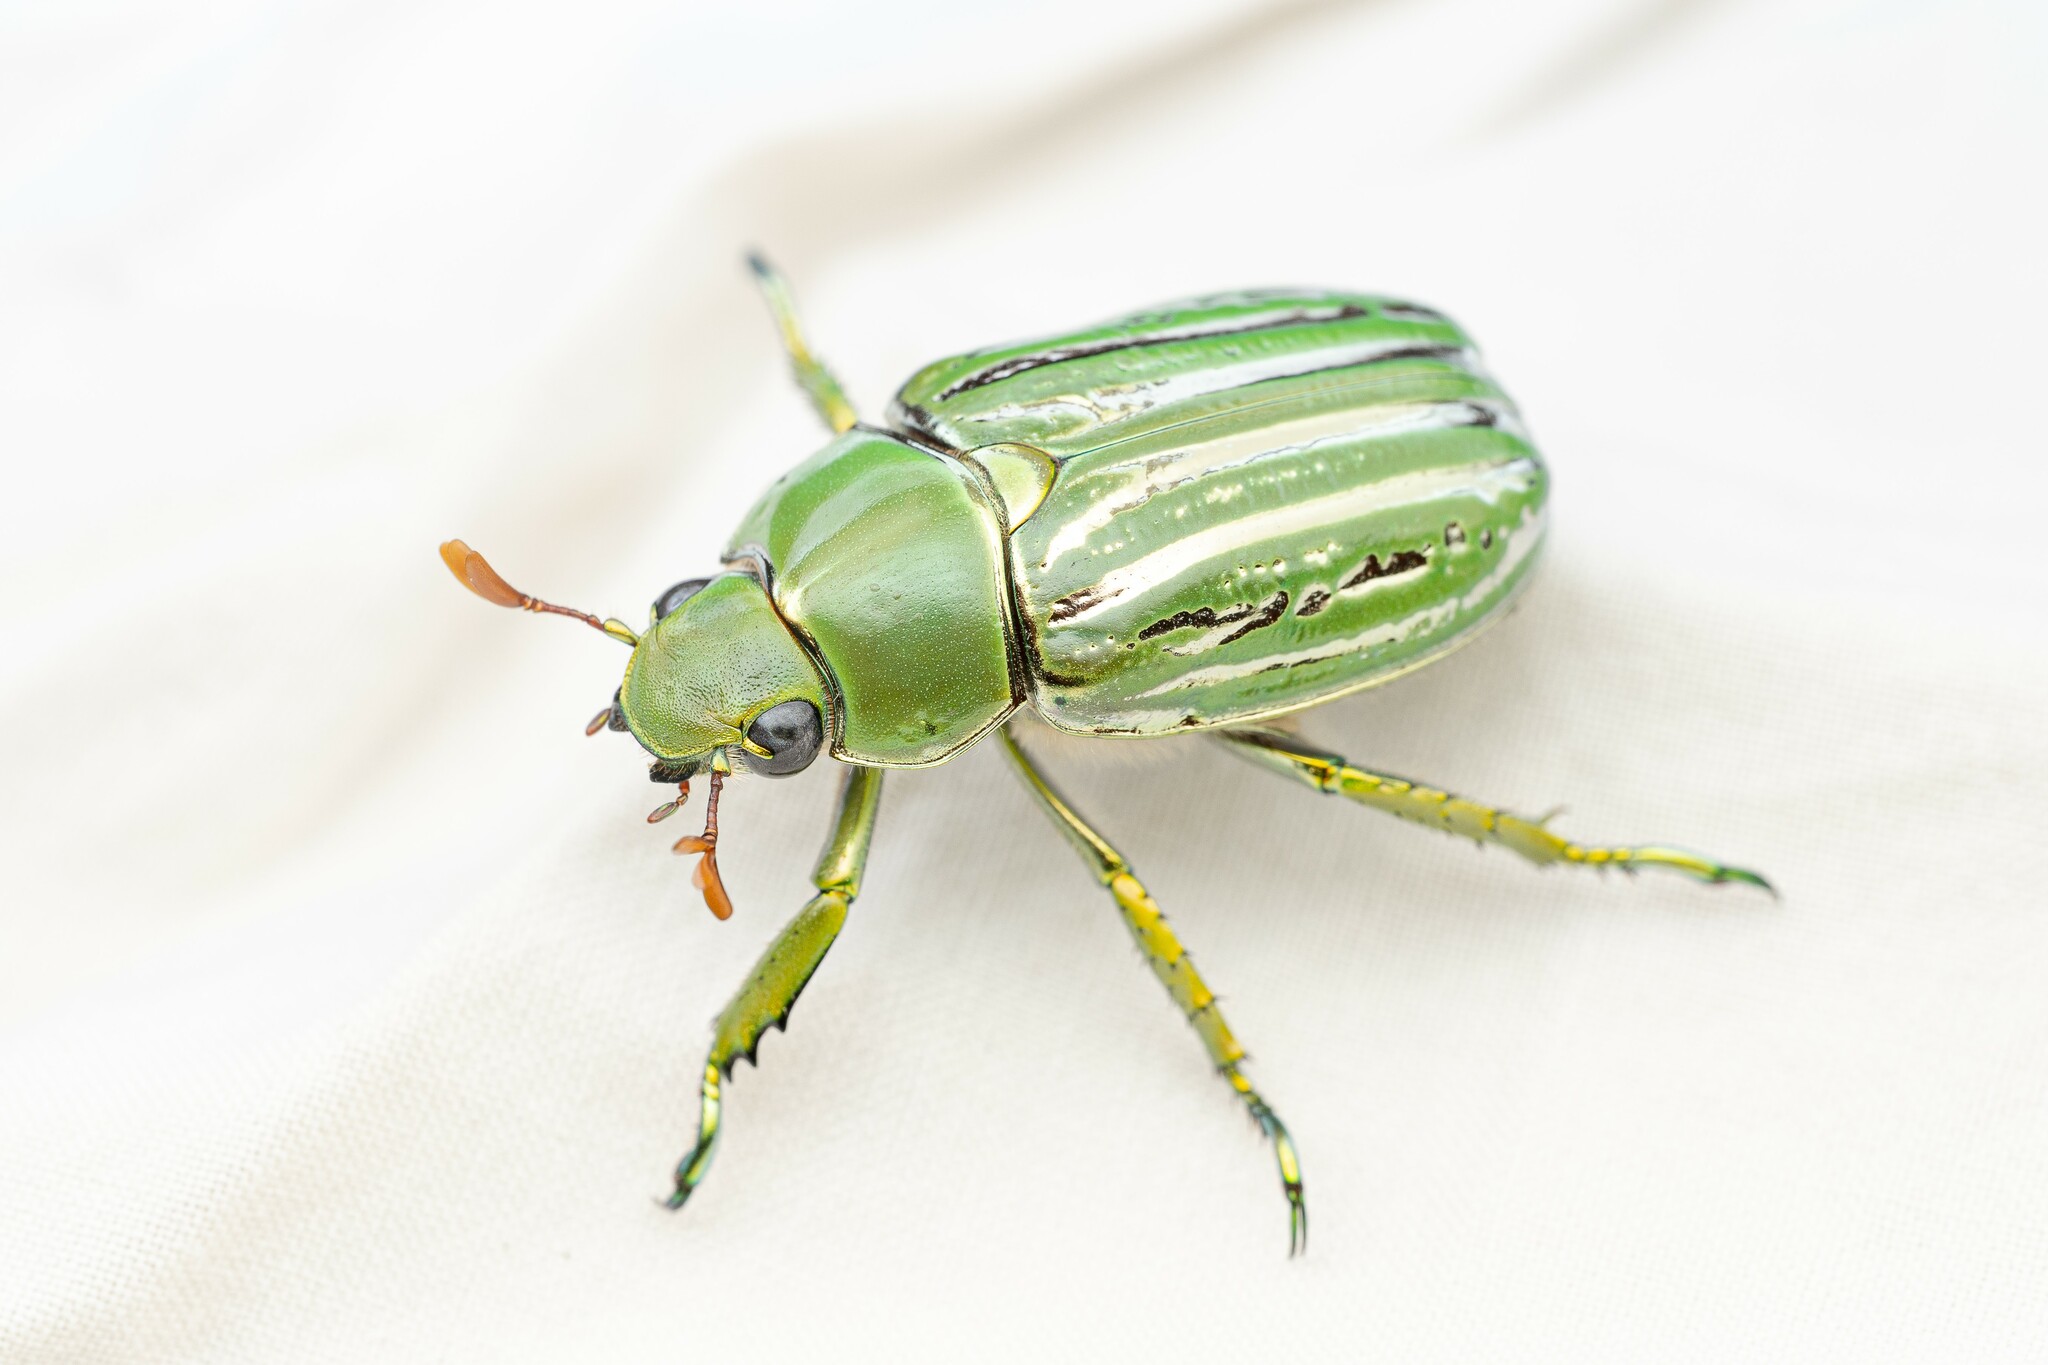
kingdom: Animalia
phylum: Arthropoda
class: Insecta
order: Coleoptera
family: Scarabaeidae
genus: Chrysina
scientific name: Chrysina gloriosa
